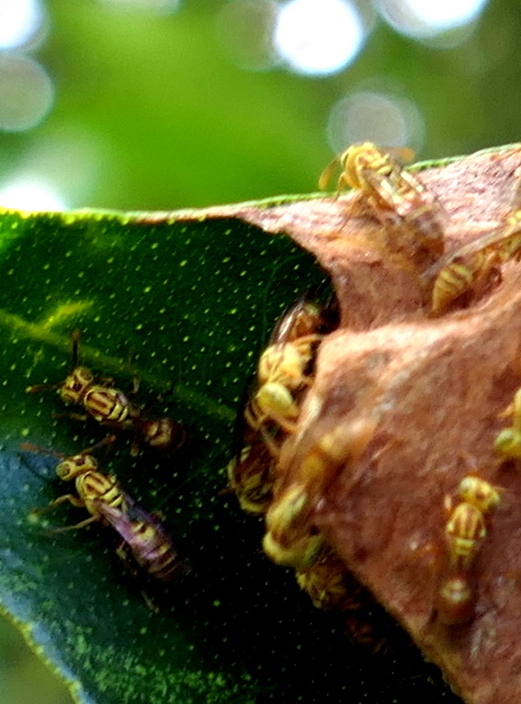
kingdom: Animalia
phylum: Arthropoda
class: Insecta
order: Hymenoptera
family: Vespidae
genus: Protopolybia
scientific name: Protopolybia potiguara
